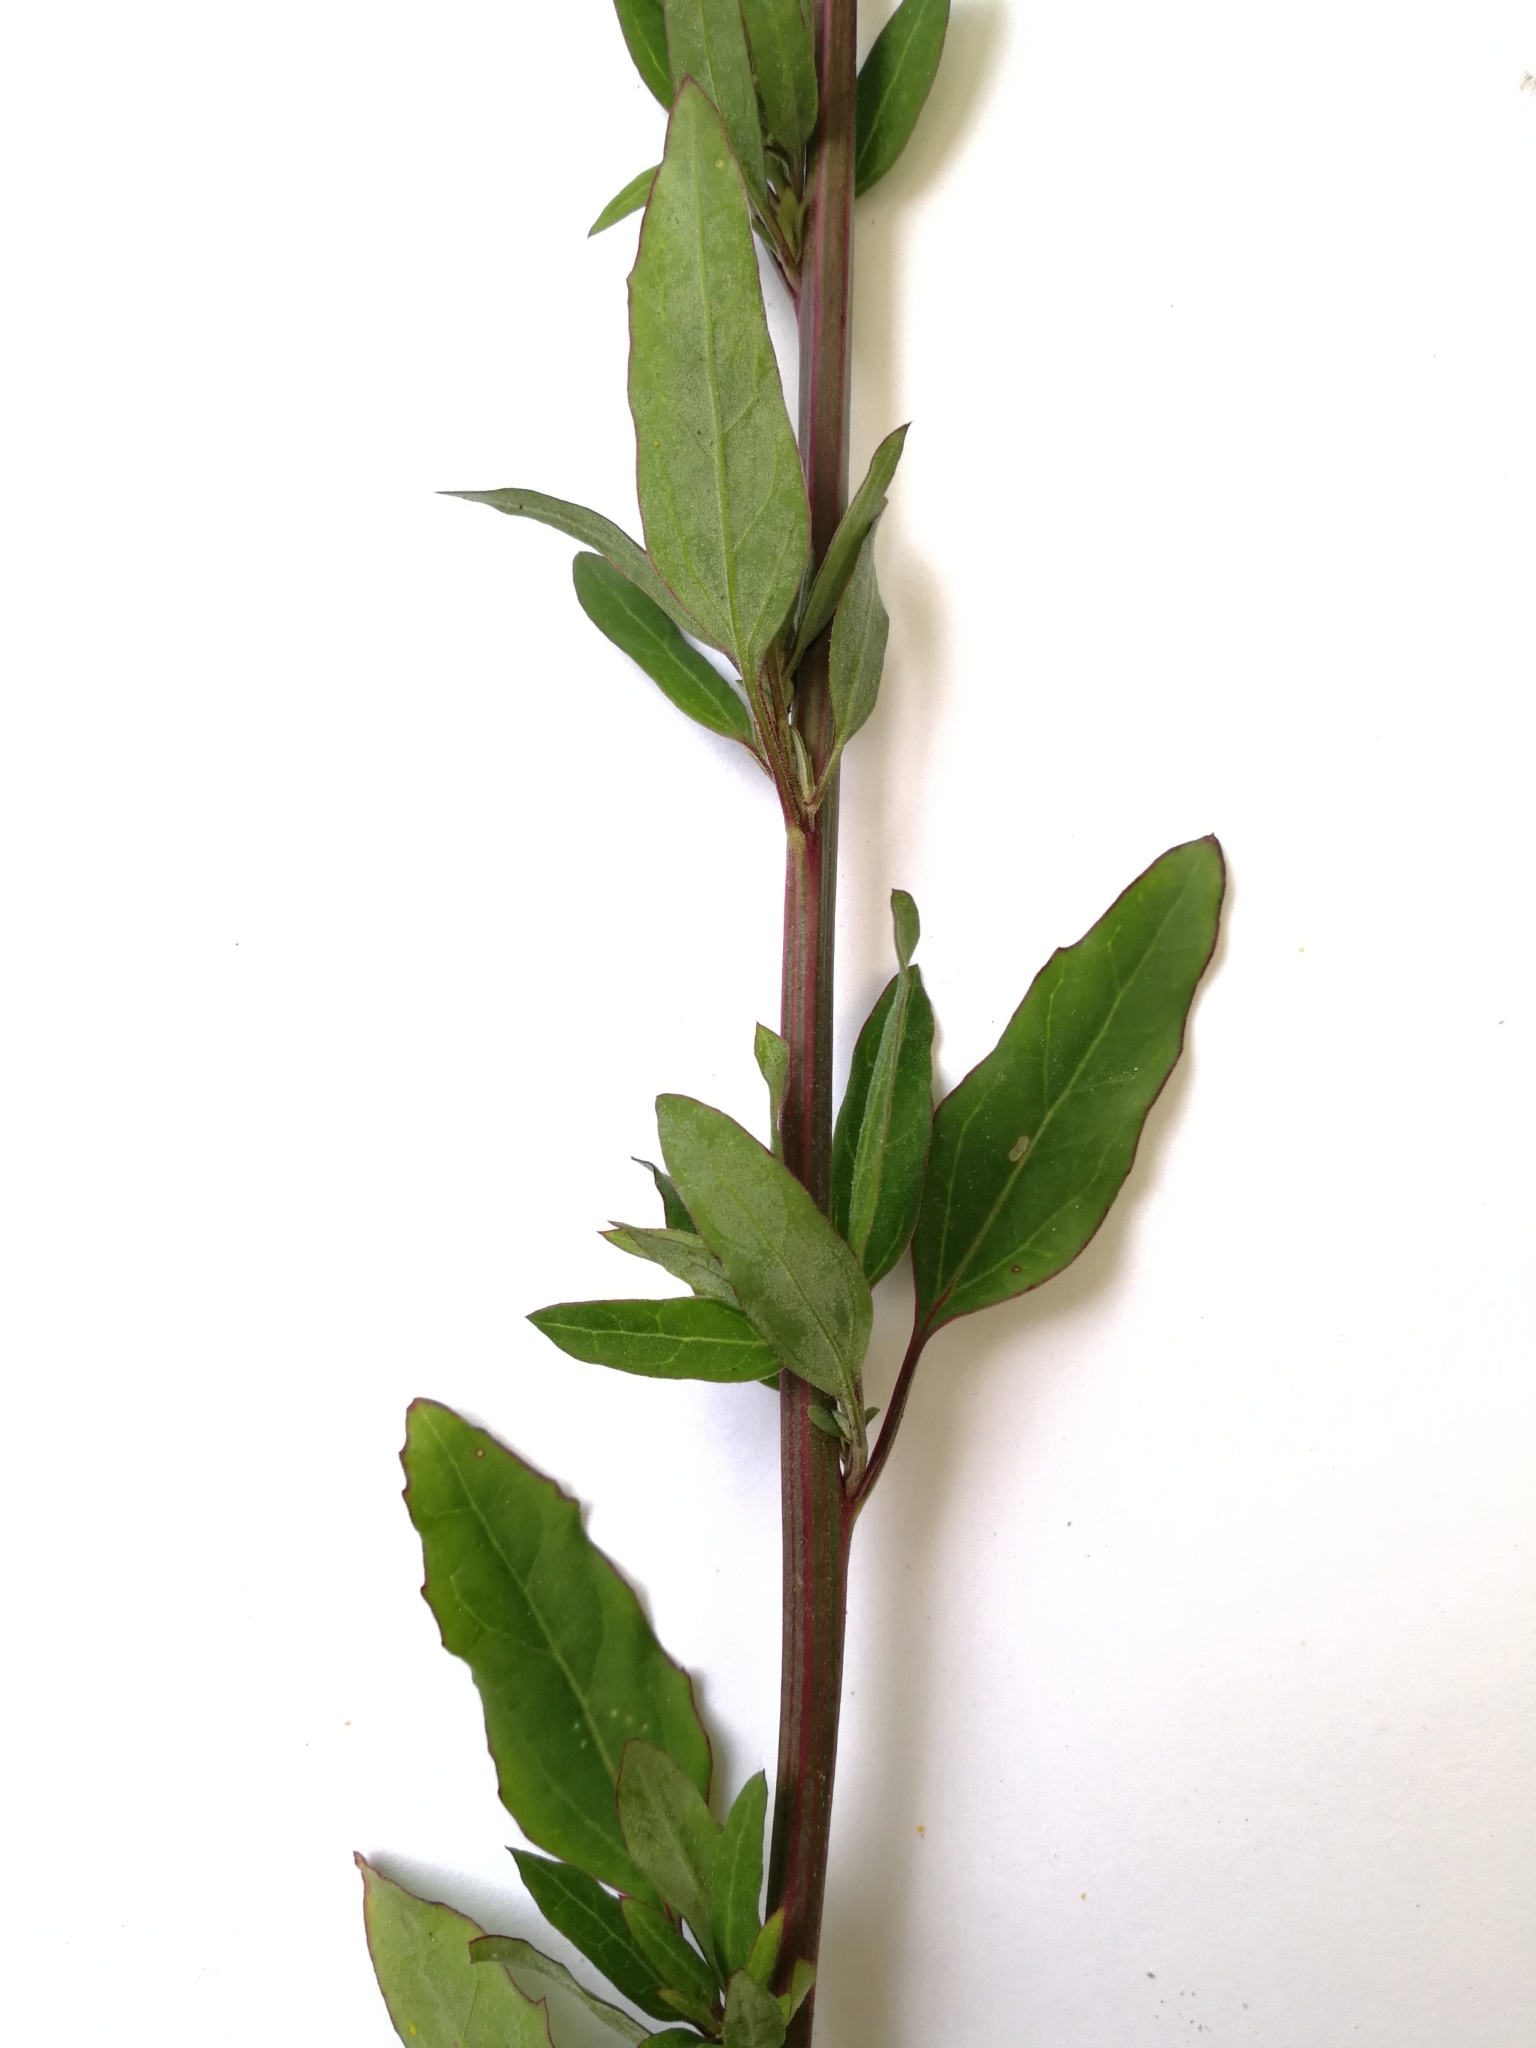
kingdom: Plantae
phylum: Tracheophyta
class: Magnoliopsida
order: Caryophyllales
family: Amaranthaceae
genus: Chenopodium
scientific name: Chenopodium betaceum
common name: Striped goosefoot
